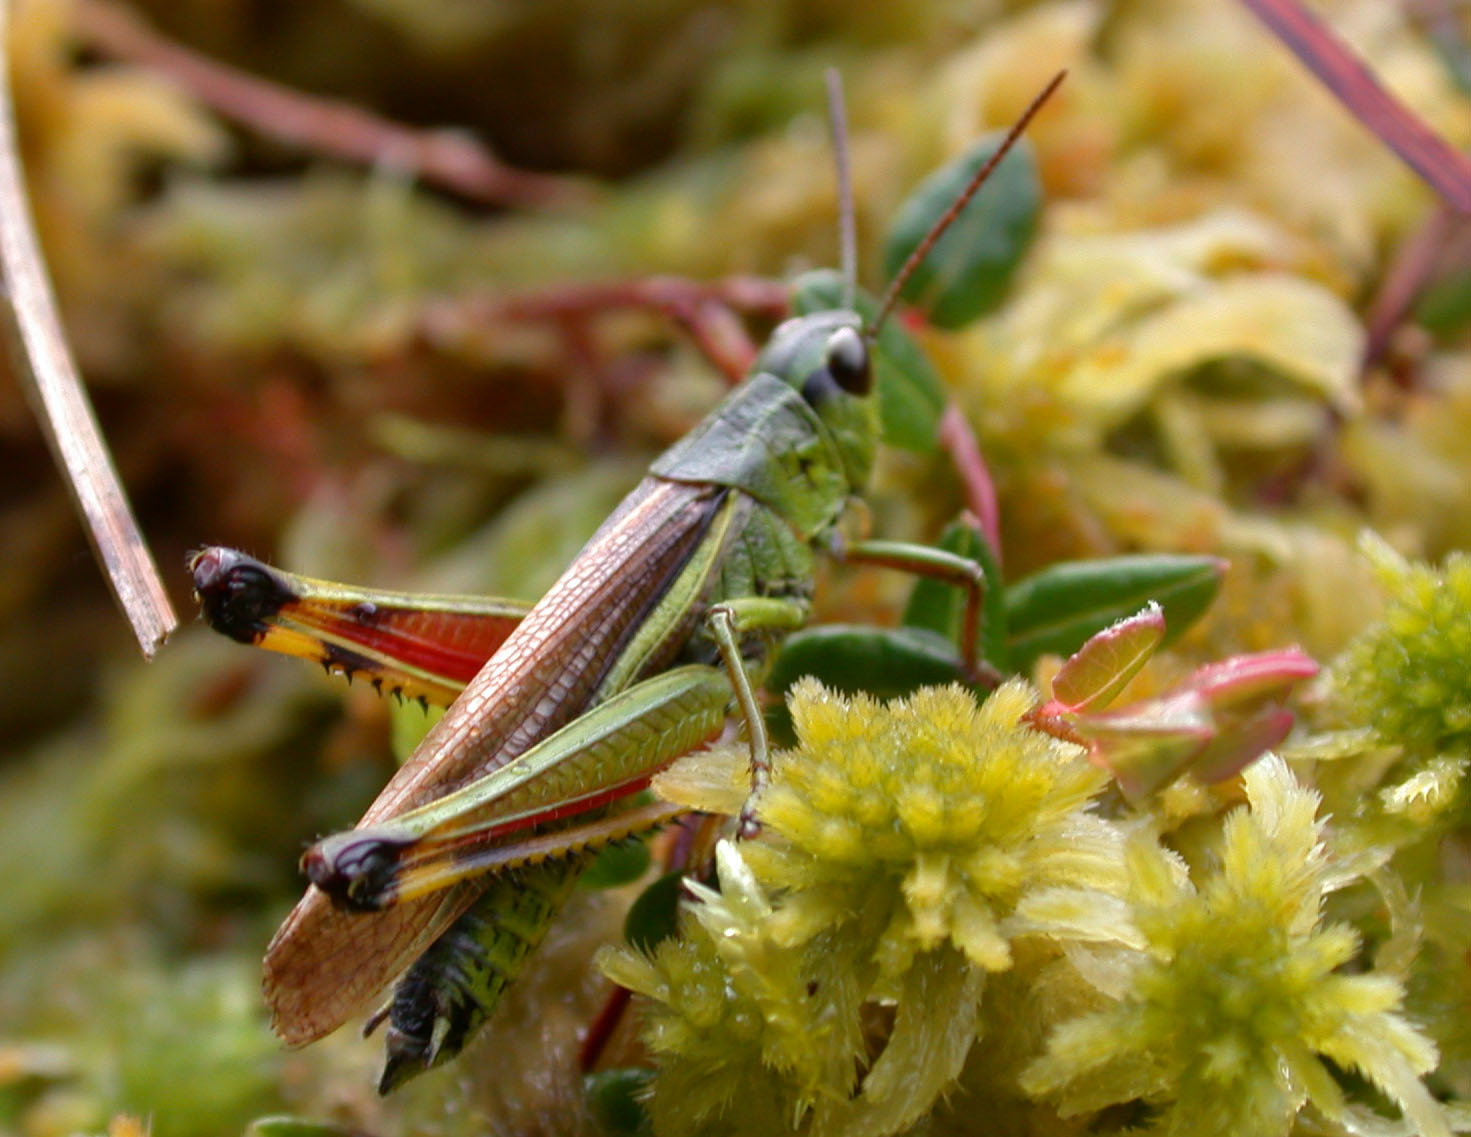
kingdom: Animalia
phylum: Arthropoda
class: Insecta
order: Orthoptera
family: Acrididae
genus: Stethophyma
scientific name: Stethophyma grossum
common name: Large marsh grasshopper
